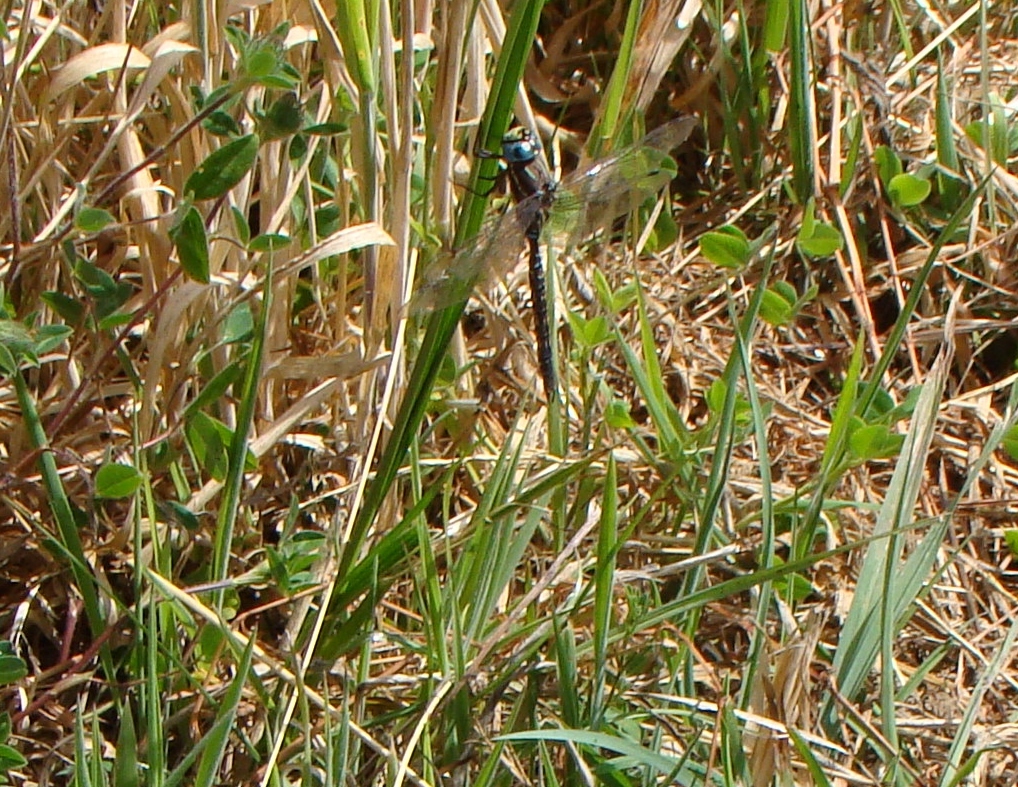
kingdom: Animalia
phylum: Arthropoda
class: Insecta
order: Odonata
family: Aeshnidae
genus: Aeshna
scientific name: Aeshna brevistyla
